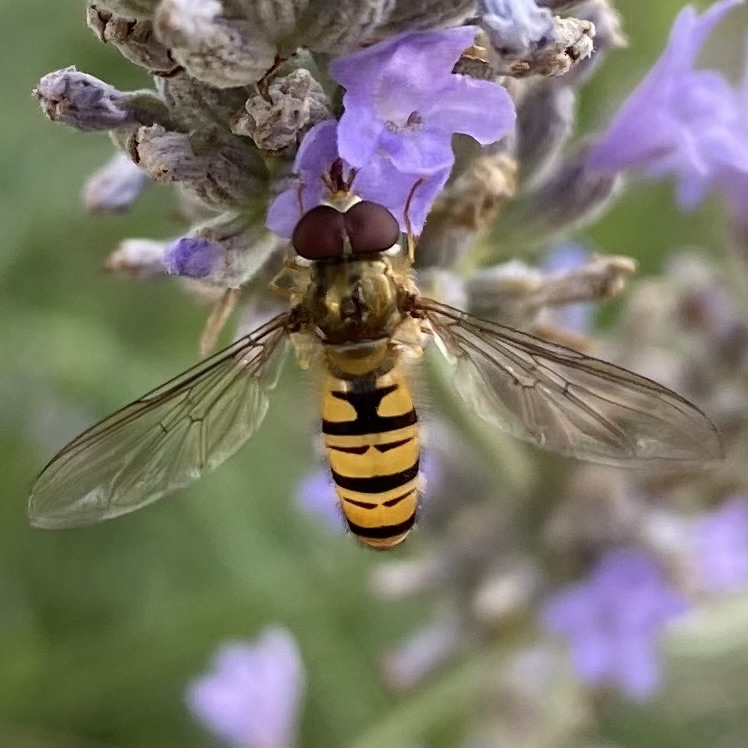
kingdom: Animalia
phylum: Arthropoda
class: Insecta
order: Diptera
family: Syrphidae
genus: Episyrphus
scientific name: Episyrphus balteatus
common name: Marmalade hoverfly
